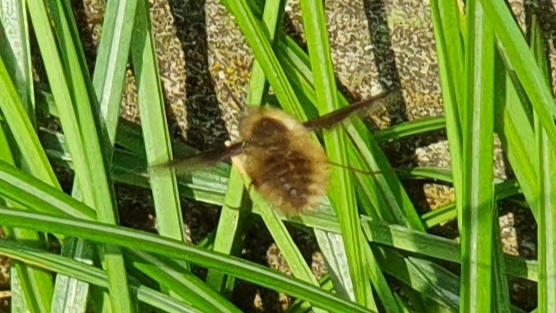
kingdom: Animalia
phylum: Arthropoda
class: Insecta
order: Diptera
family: Bombyliidae
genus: Bombylius
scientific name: Bombylius major
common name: Bee fly
